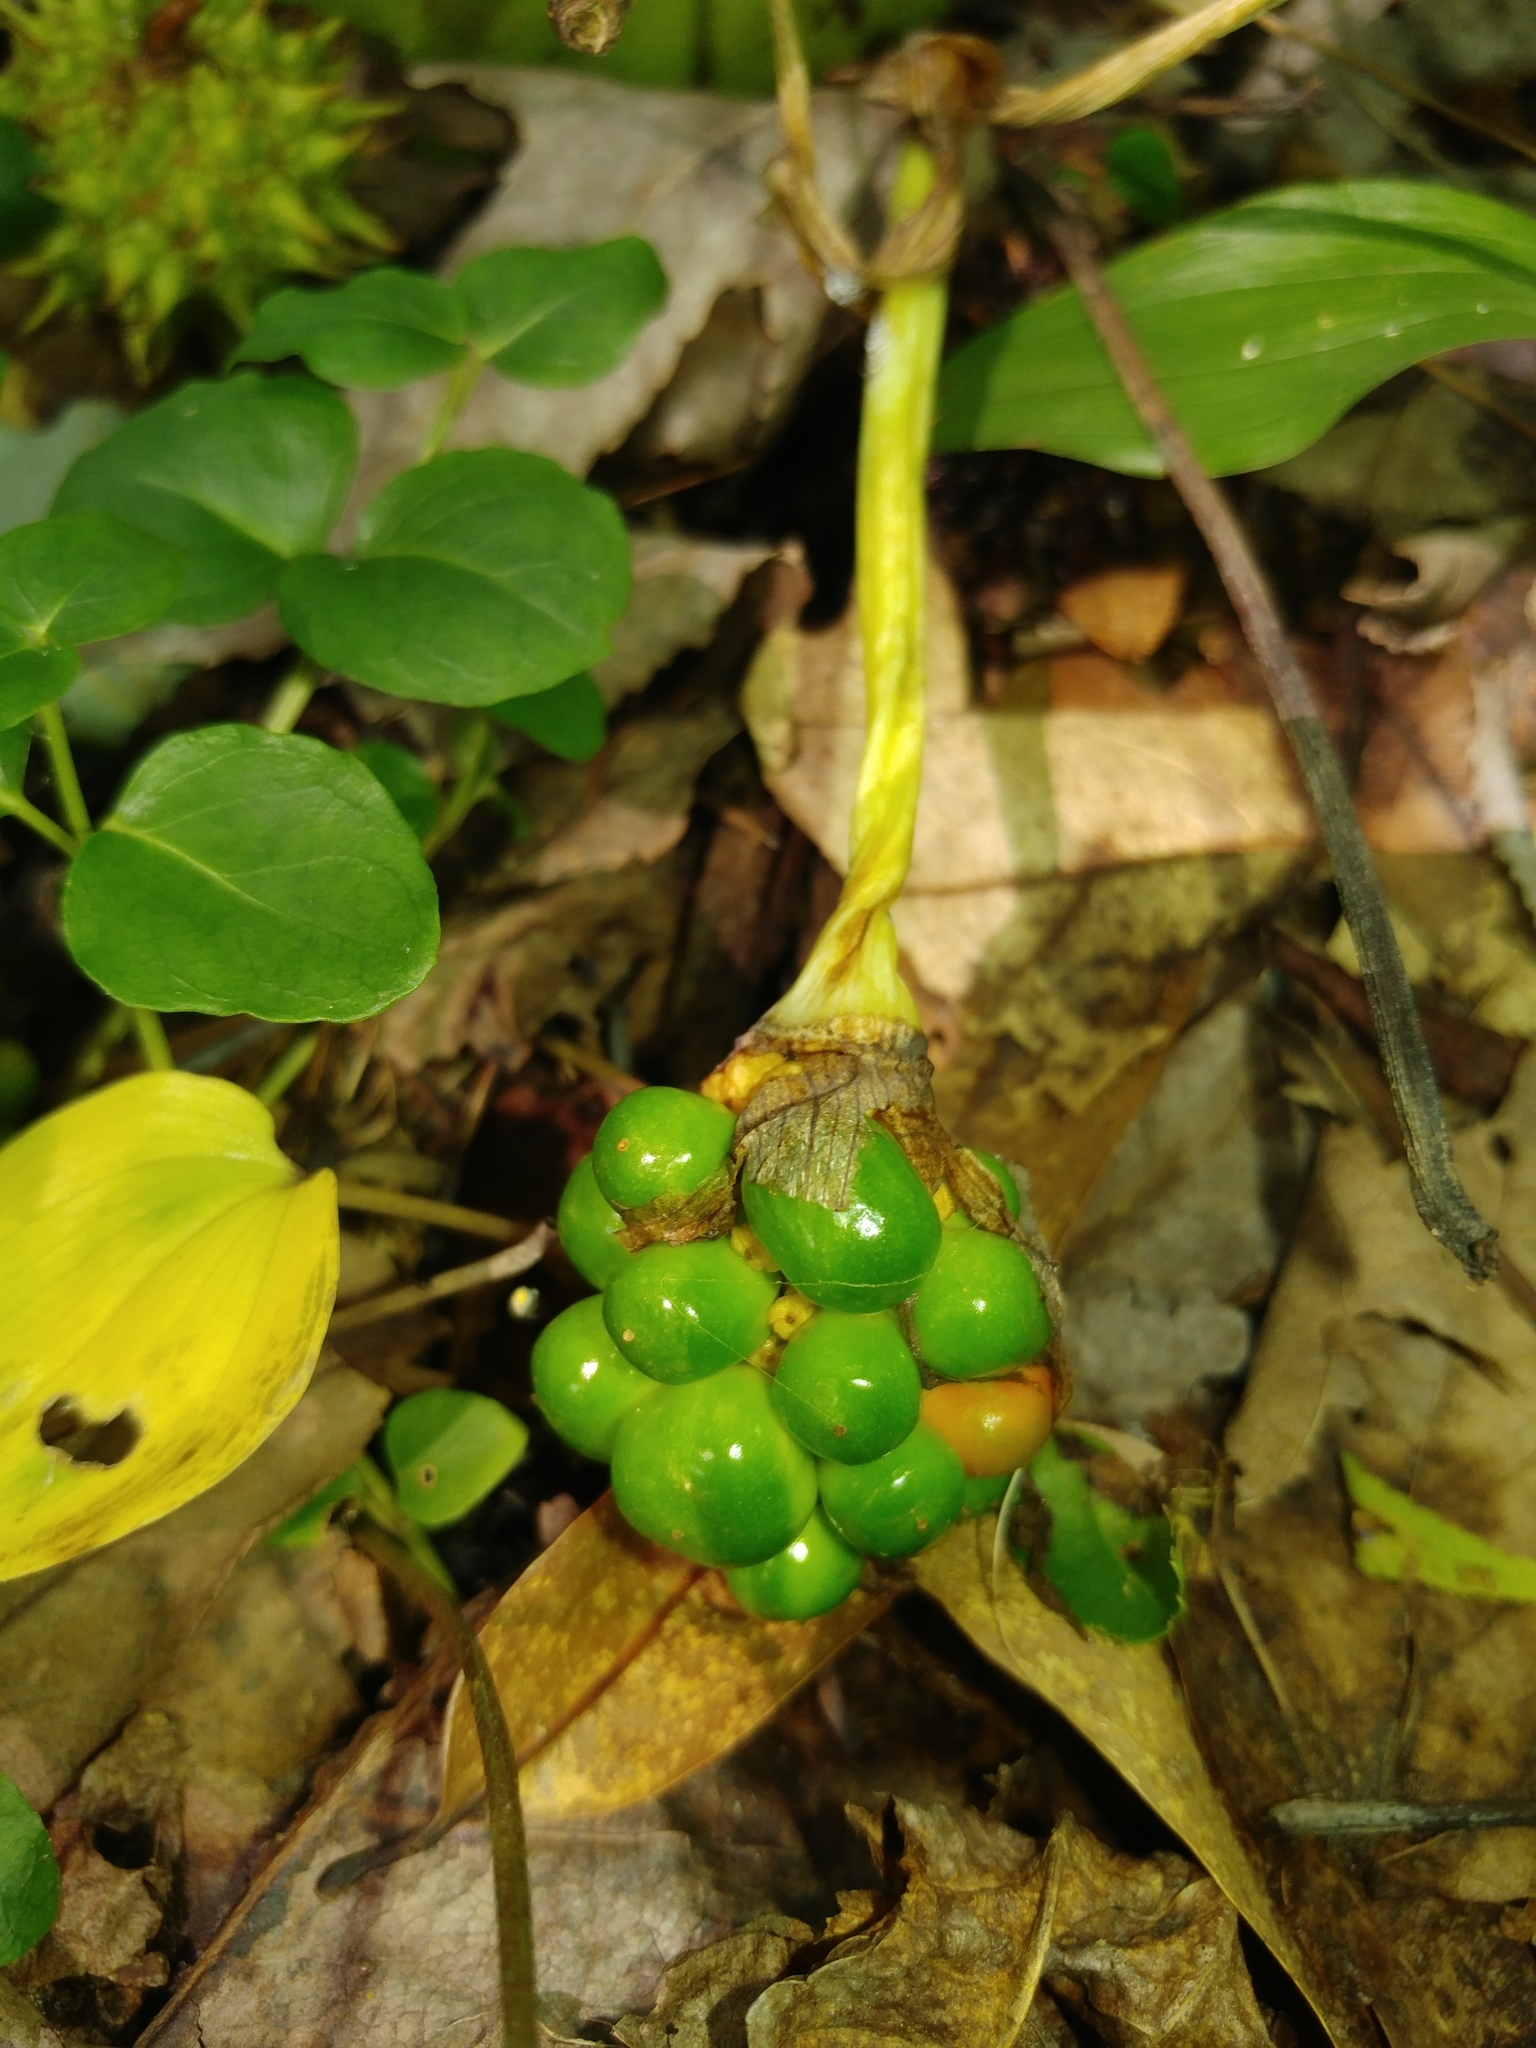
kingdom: Plantae
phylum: Tracheophyta
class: Liliopsida
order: Alismatales
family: Araceae
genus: Arisaema
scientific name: Arisaema triphyllum
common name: Jack-in-the-pulpit
